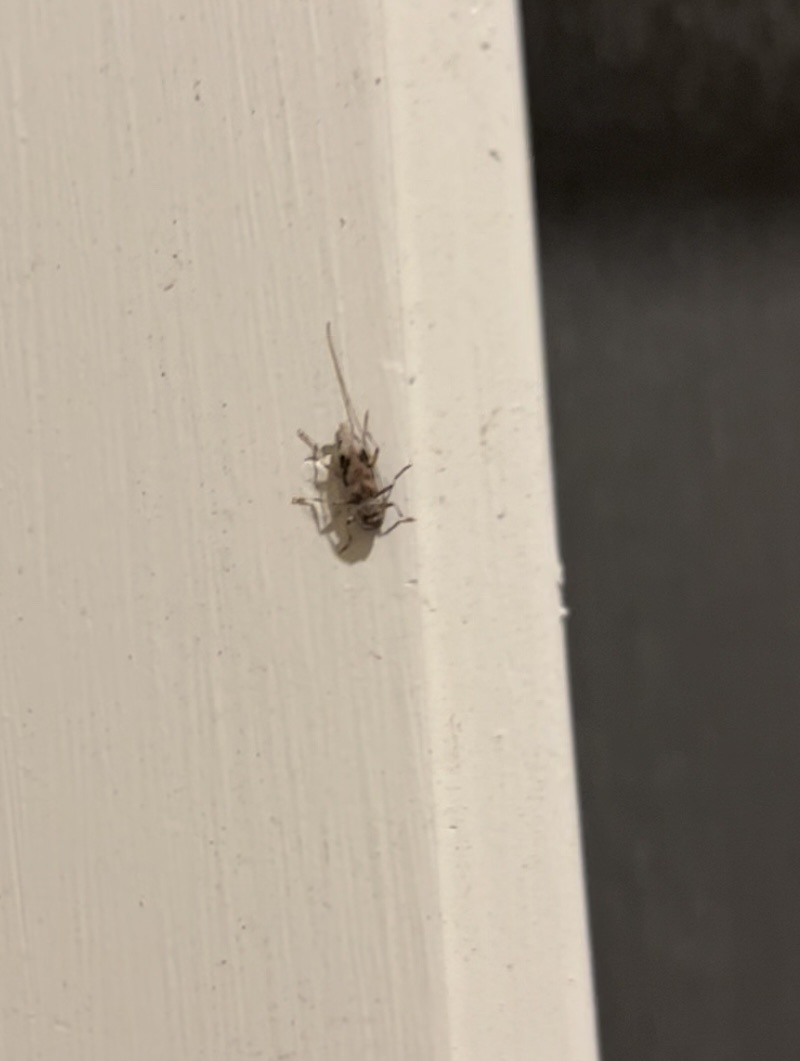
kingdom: Animalia
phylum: Arthropoda
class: Insecta
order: Coleoptera
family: Cerambycidae
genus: Lepturges
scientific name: Lepturges angulatus
